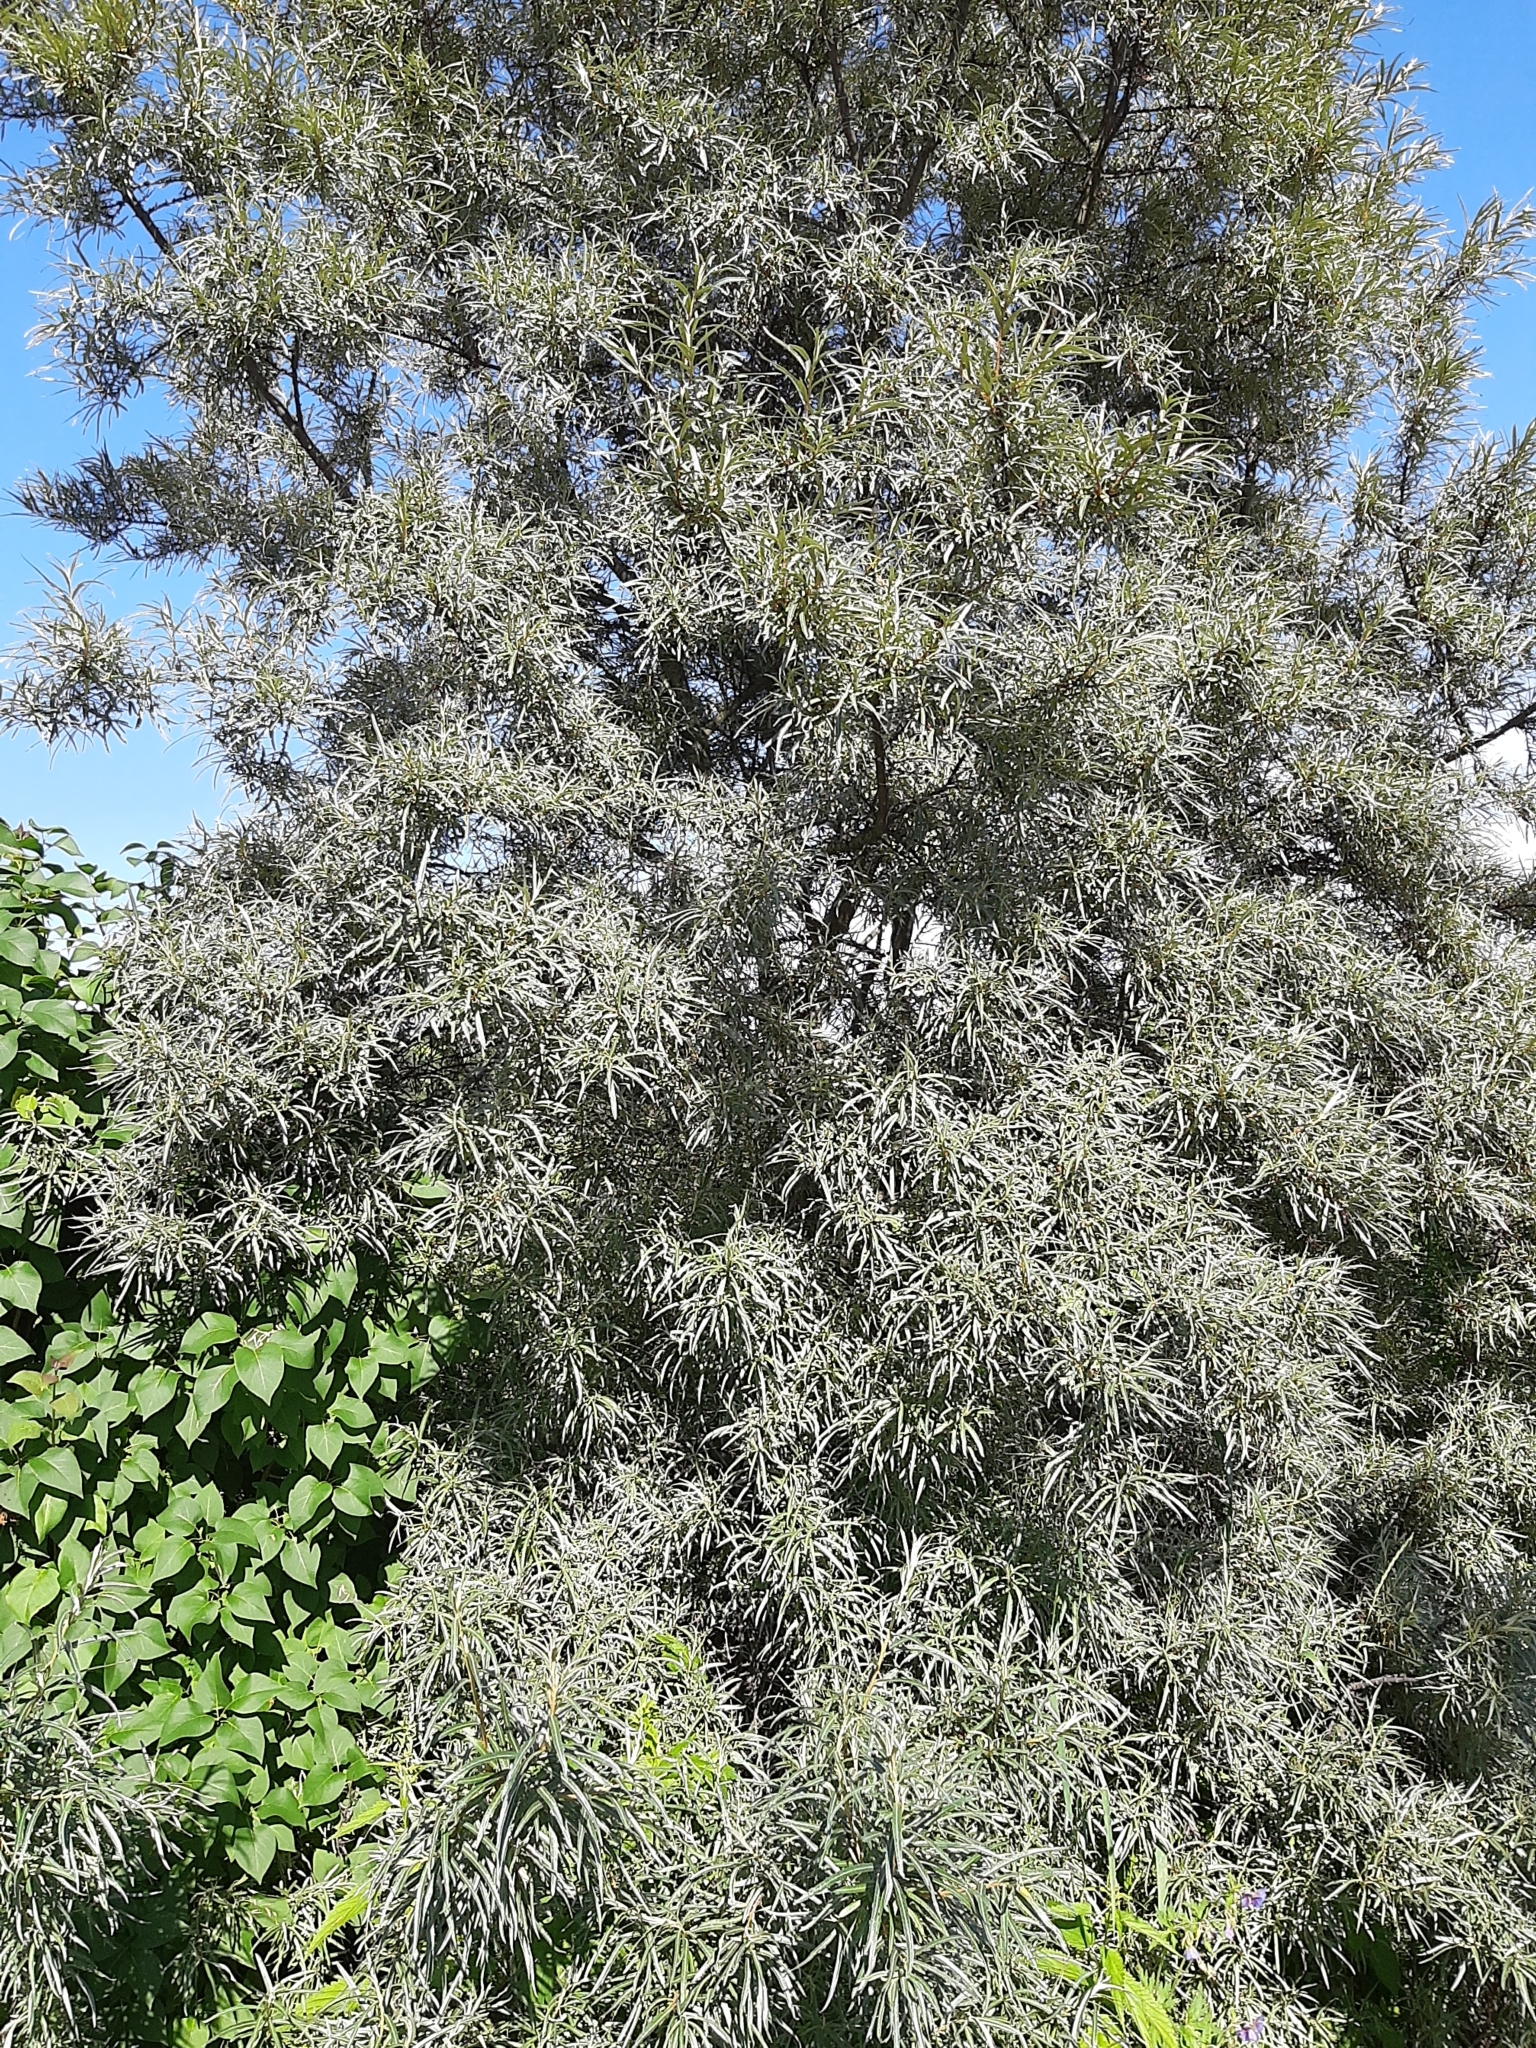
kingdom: Plantae
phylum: Tracheophyta
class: Magnoliopsida
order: Rosales
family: Elaeagnaceae
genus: Hippophae
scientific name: Hippophae rhamnoides
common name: Sea-buckthorn
